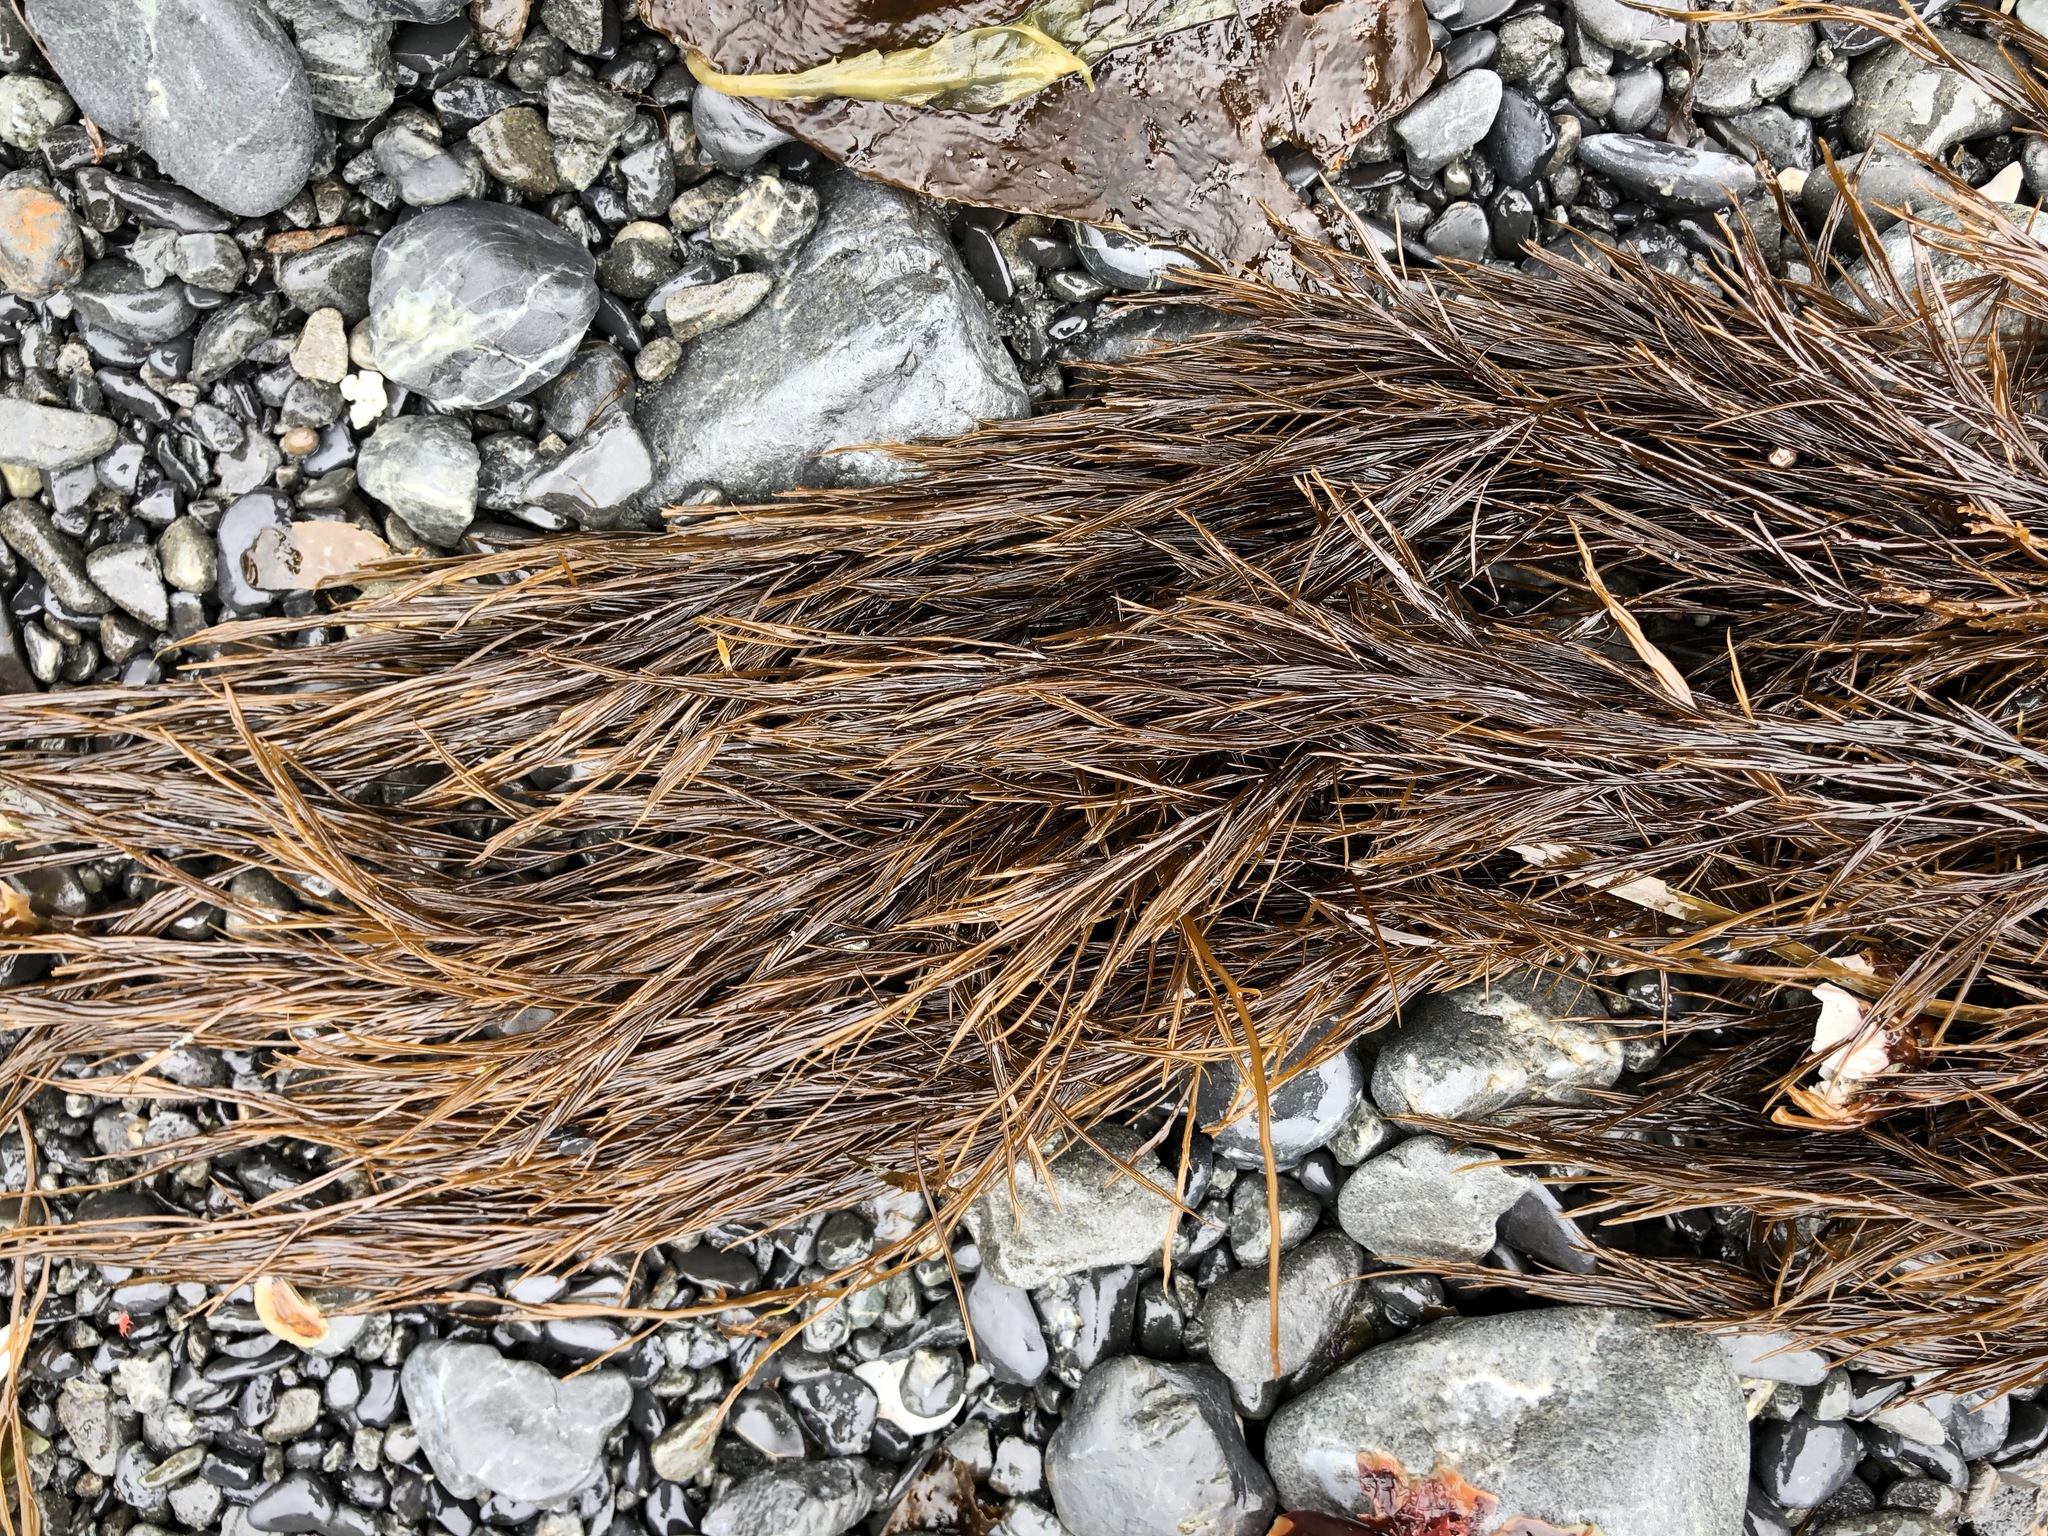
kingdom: Chromista
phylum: Ochrophyta
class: Phaeophyceae
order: Desmarestiales
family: Desmarestiaceae
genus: Desmarestia
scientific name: Desmarestia aculeata
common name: Witch's hair
